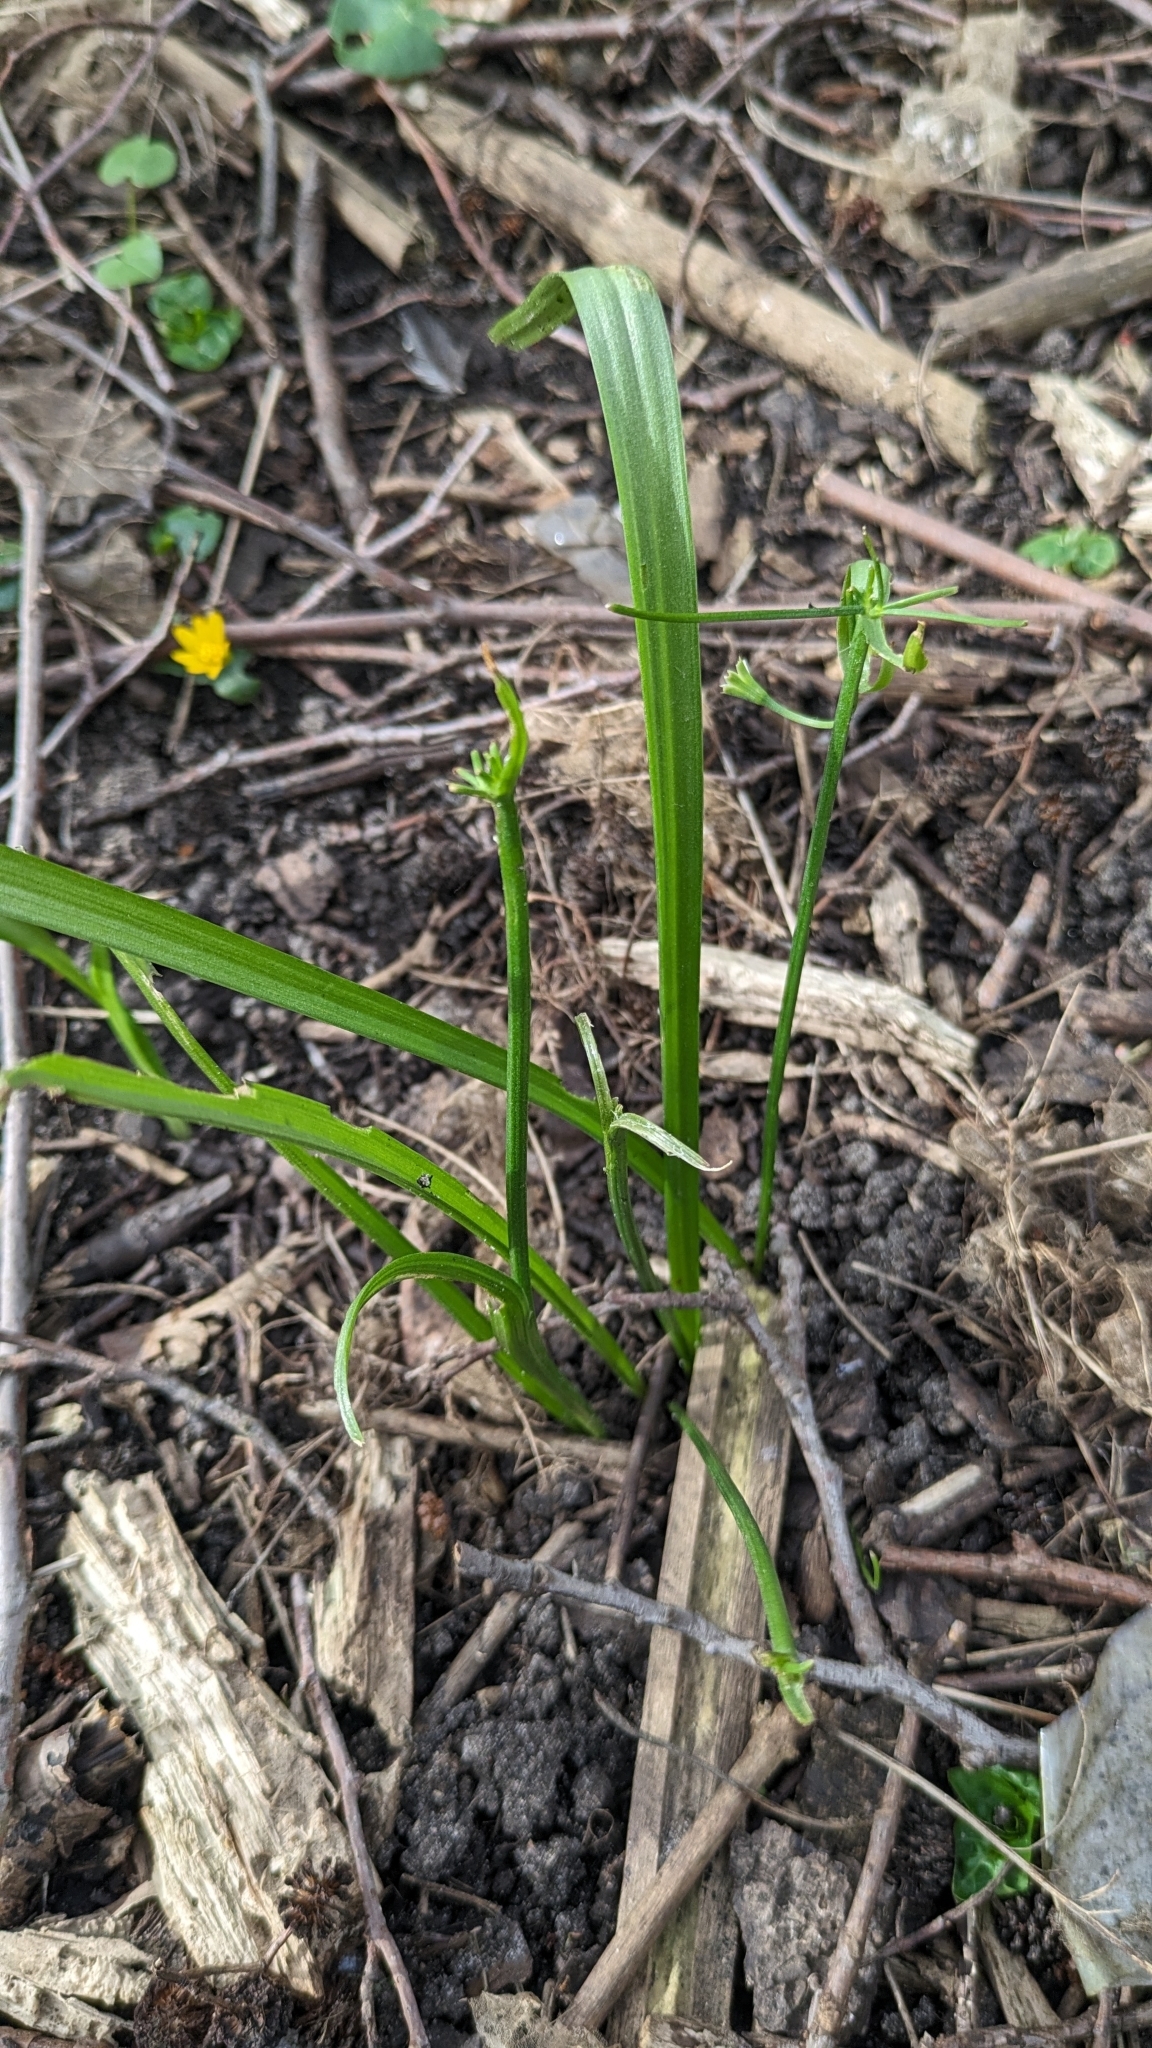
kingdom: Plantae
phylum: Tracheophyta
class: Liliopsida
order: Liliales
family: Liliaceae
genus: Gagea
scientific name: Gagea lutea
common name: Yellow star-of-bethlehem
